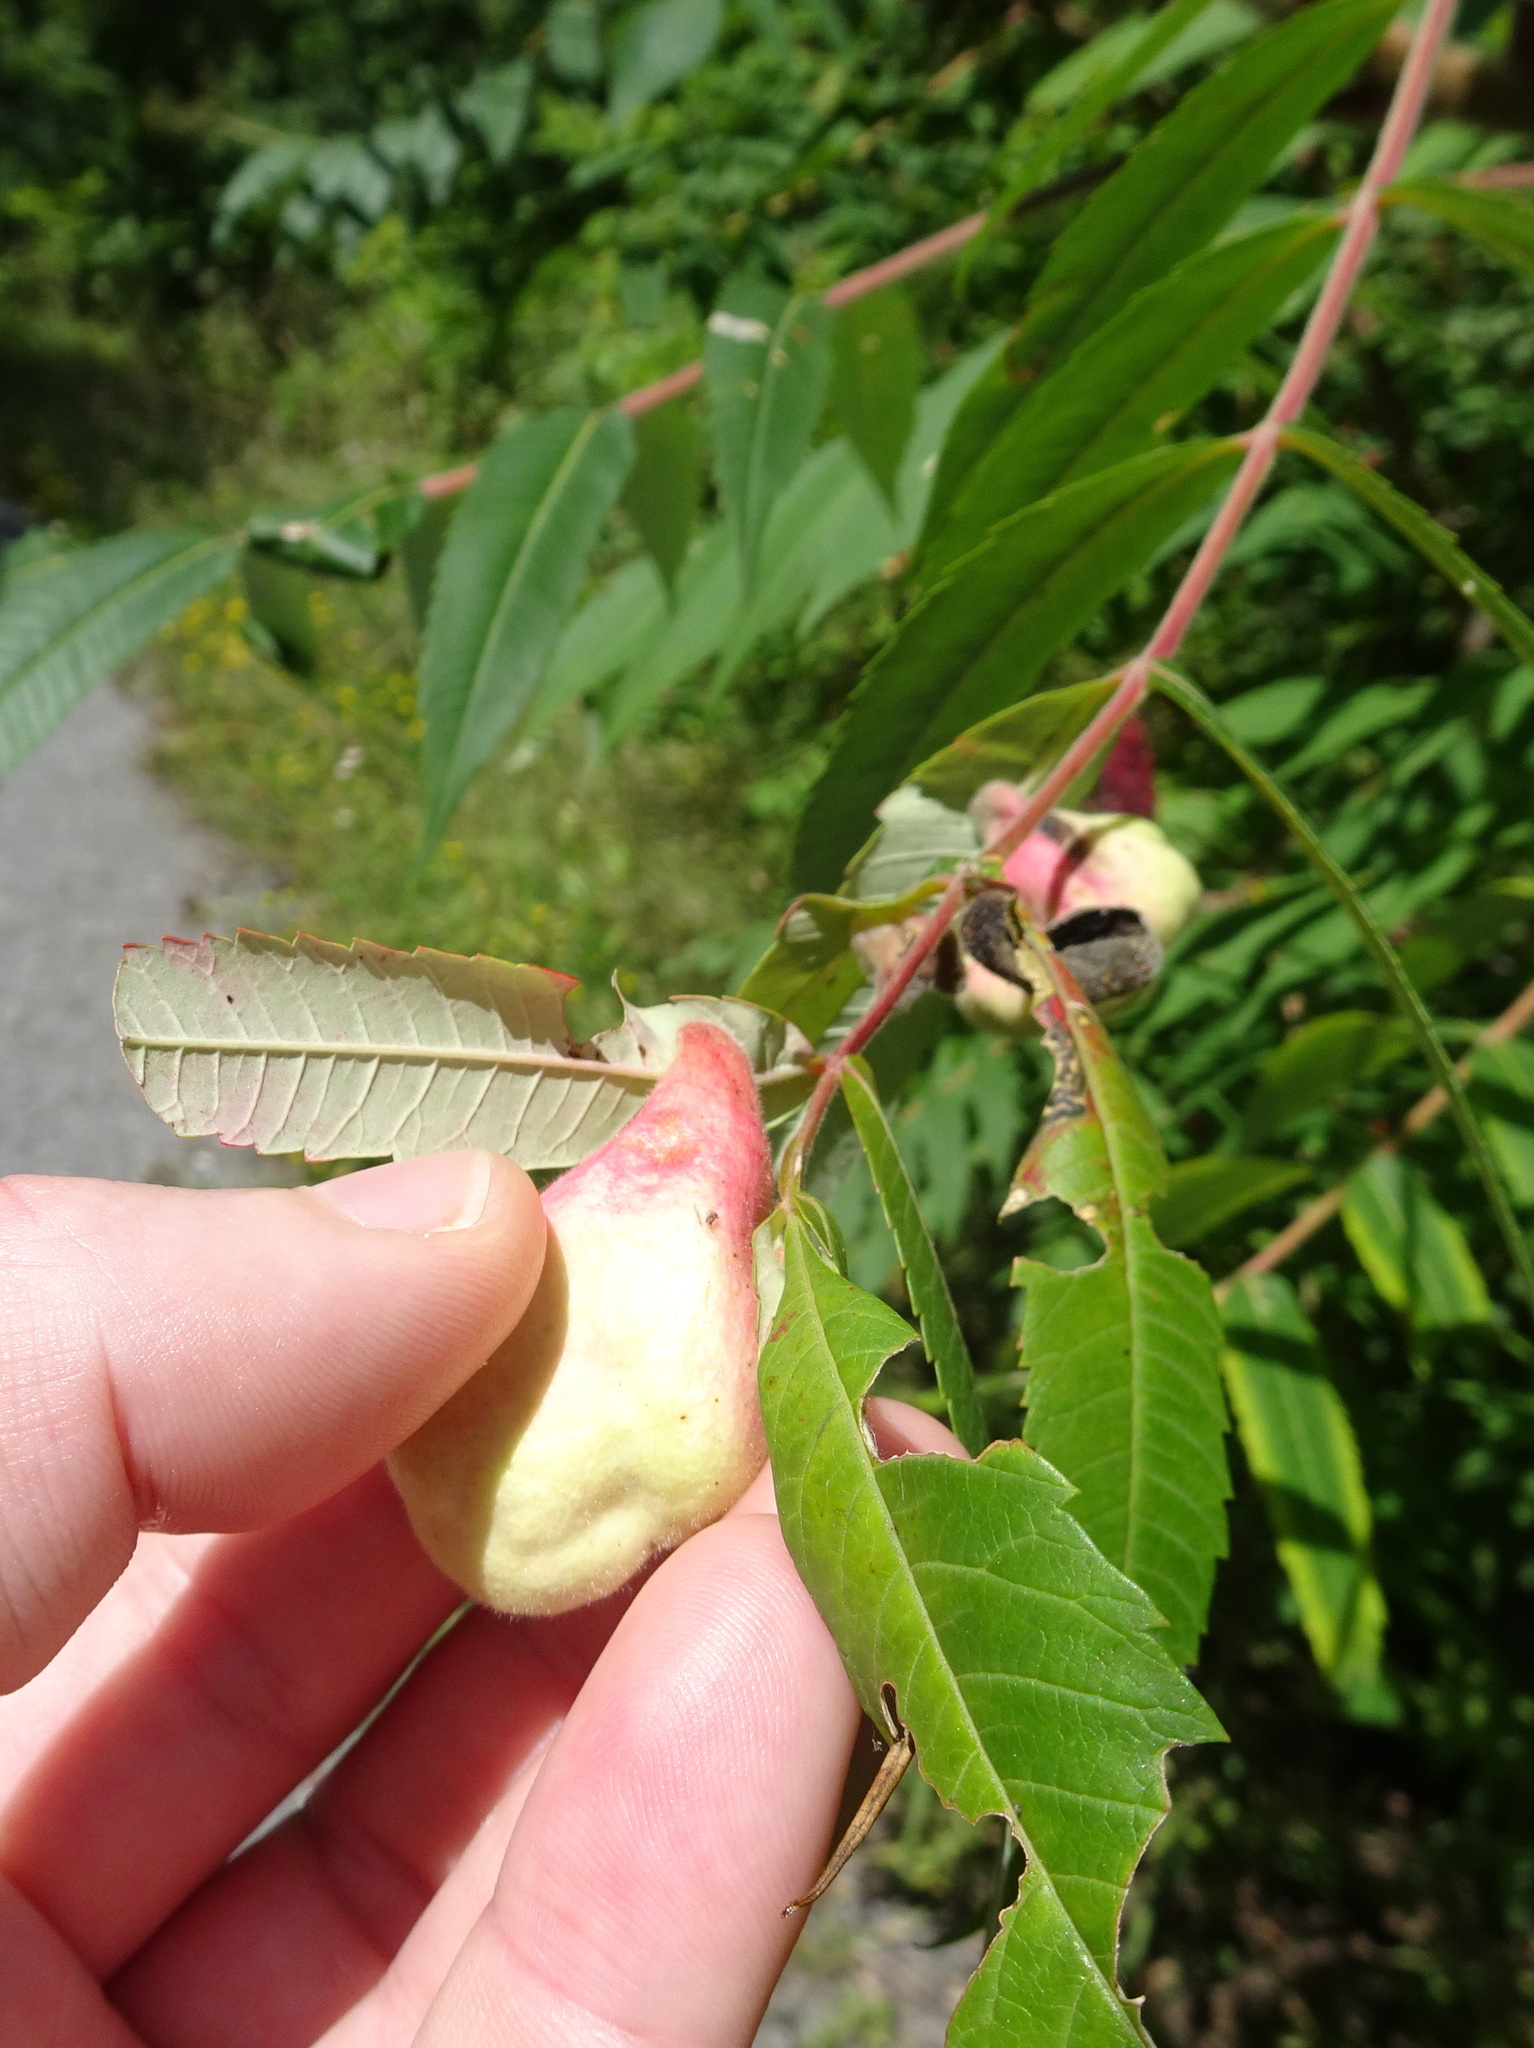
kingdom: Animalia
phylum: Arthropoda
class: Insecta
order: Hemiptera
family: Aphididae
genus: Melaphis
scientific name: Melaphis rhois
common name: Sumac gall aphid
